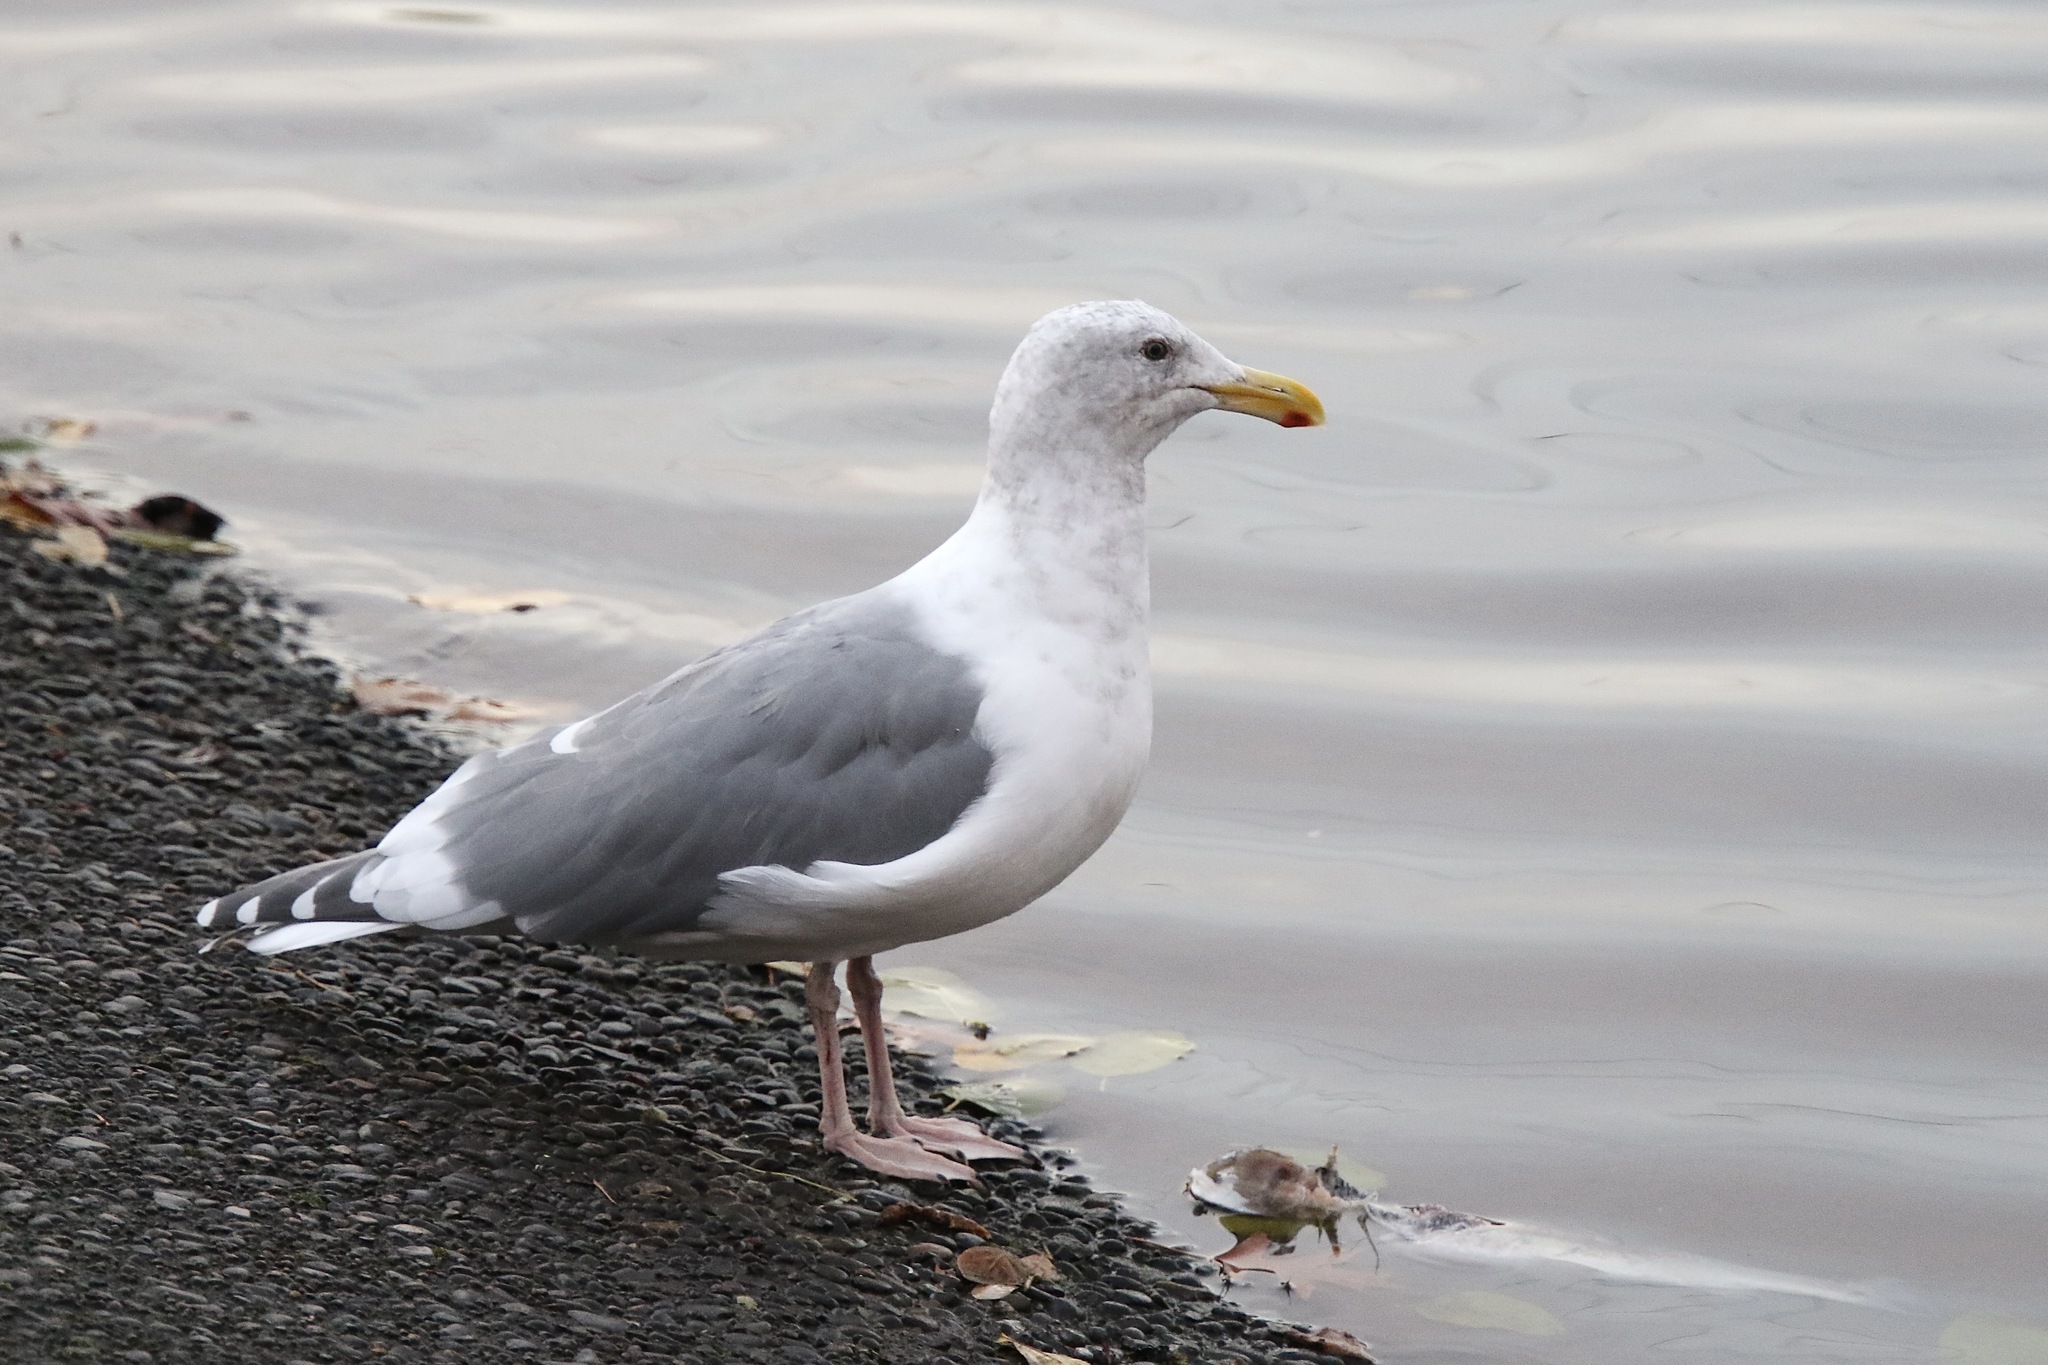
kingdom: Animalia
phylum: Chordata
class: Aves
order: Charadriiformes
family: Laridae
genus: Larus
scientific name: Larus
